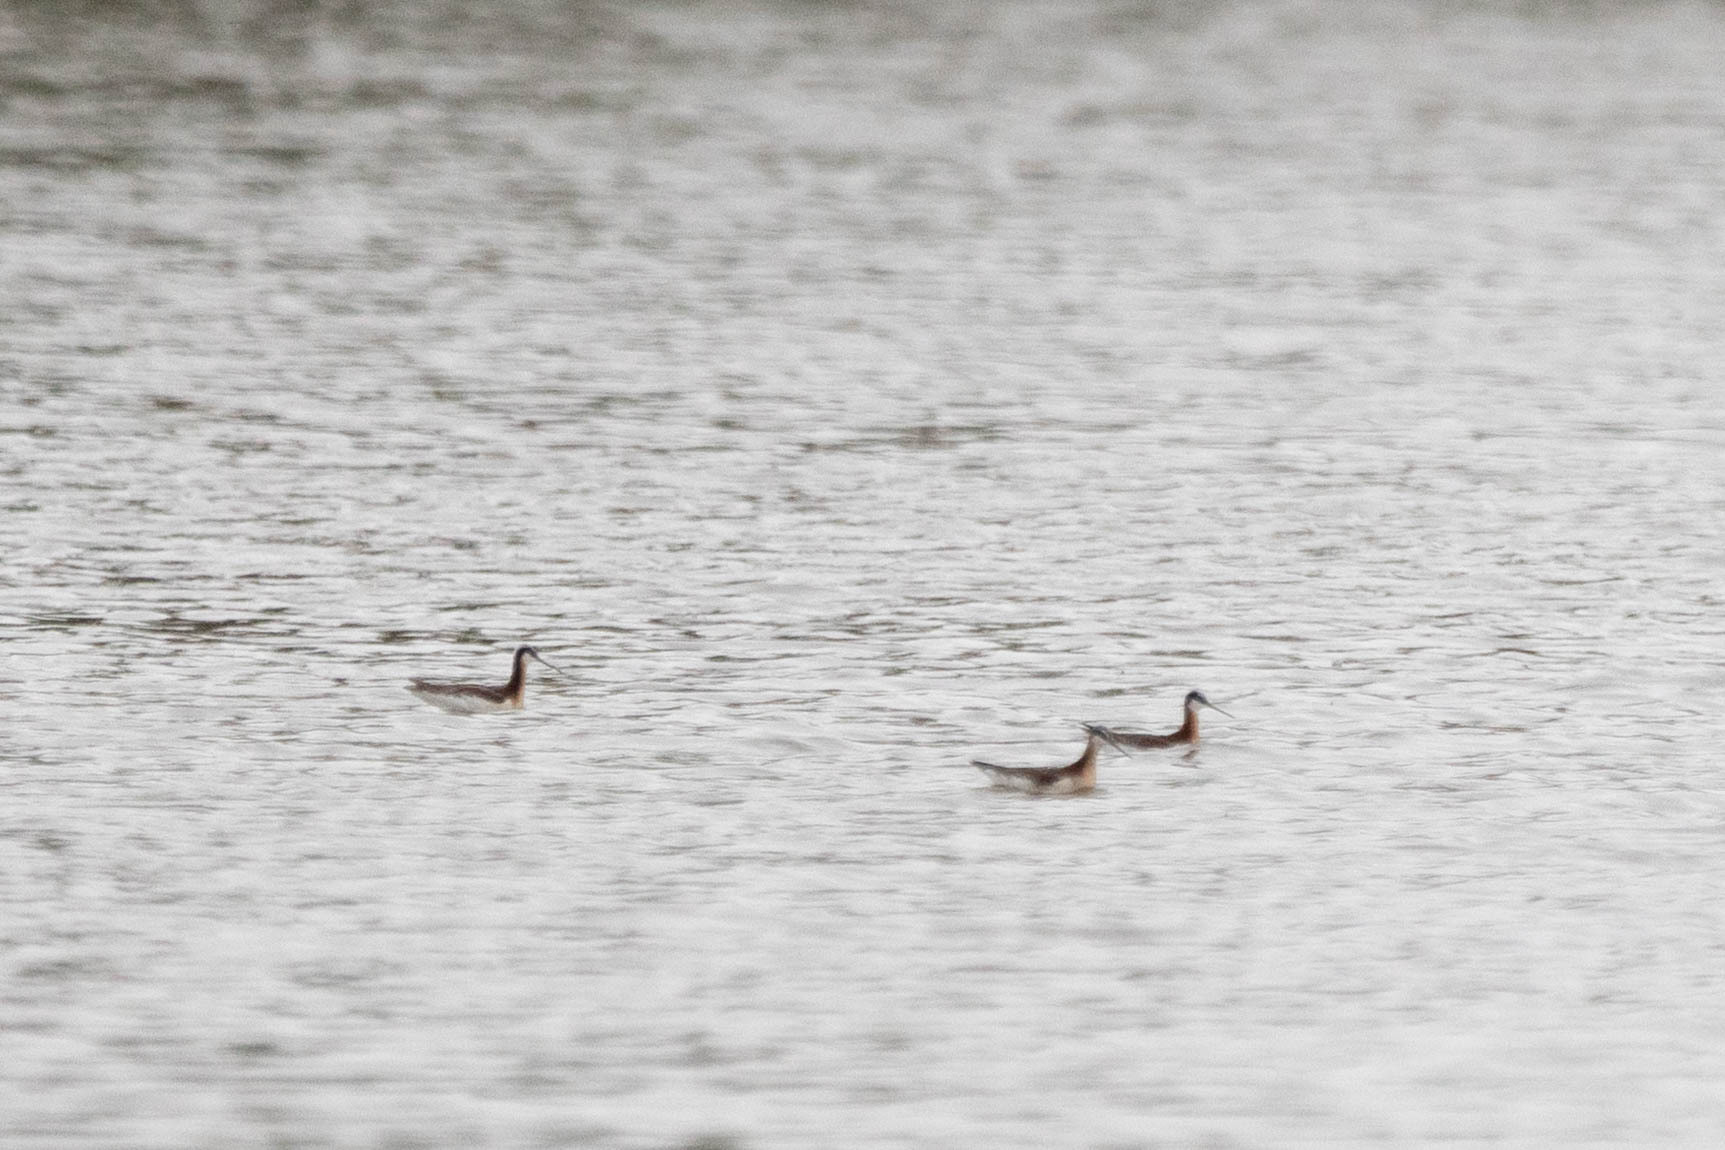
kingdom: Animalia
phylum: Chordata
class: Aves
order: Charadriiformes
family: Scolopacidae
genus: Phalaropus
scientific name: Phalaropus tricolor
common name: Wilson's phalarope
